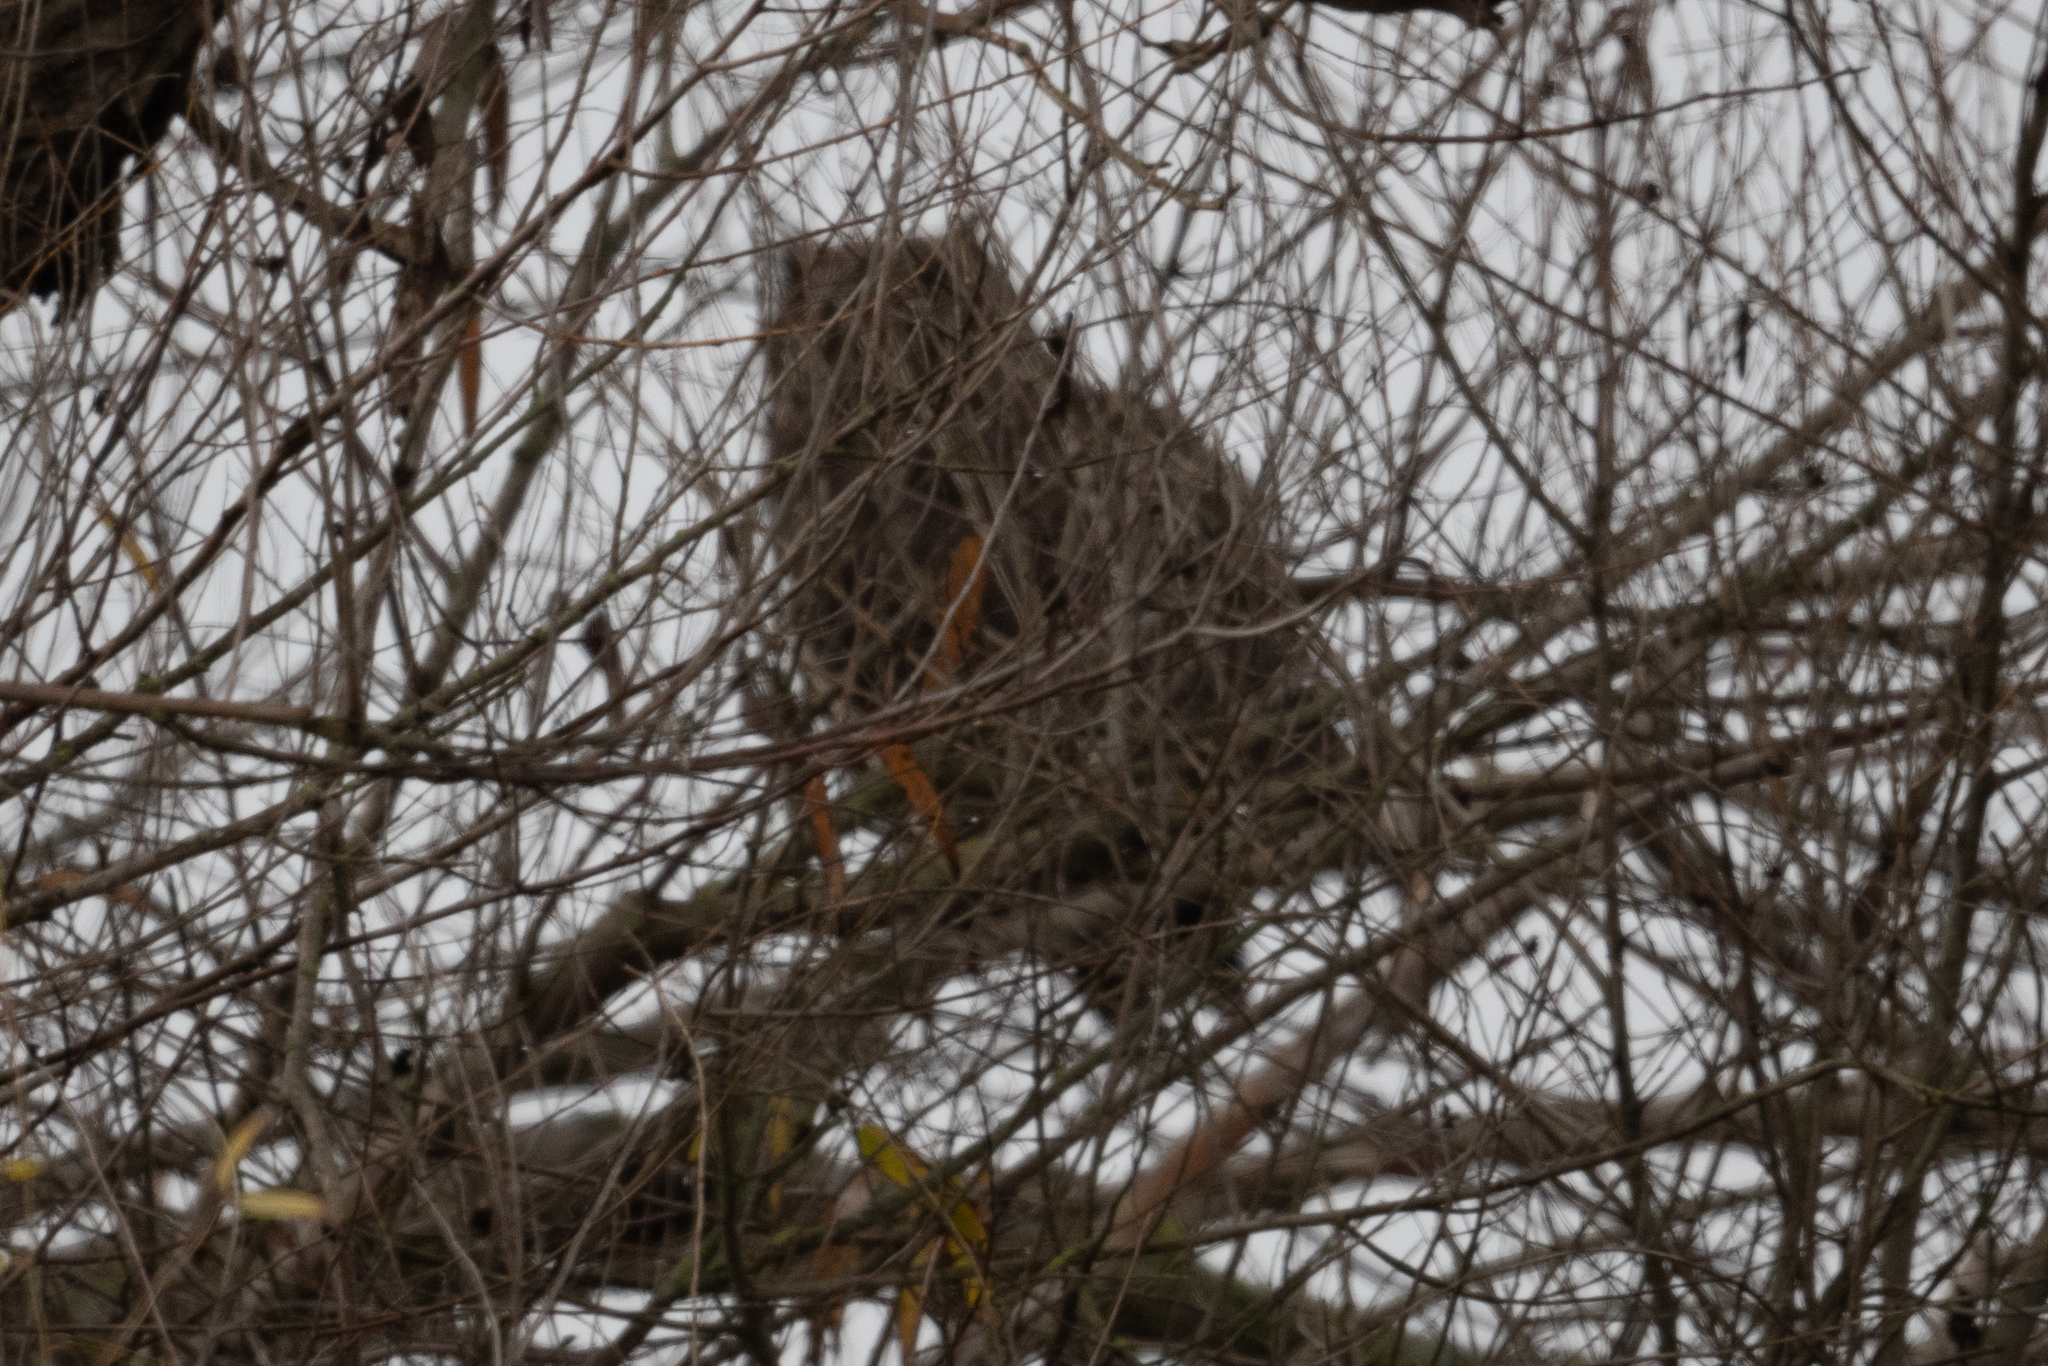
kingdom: Animalia
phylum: Chordata
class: Aves
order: Strigiformes
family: Strigidae
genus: Bubo
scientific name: Bubo virginianus
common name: Great horned owl
